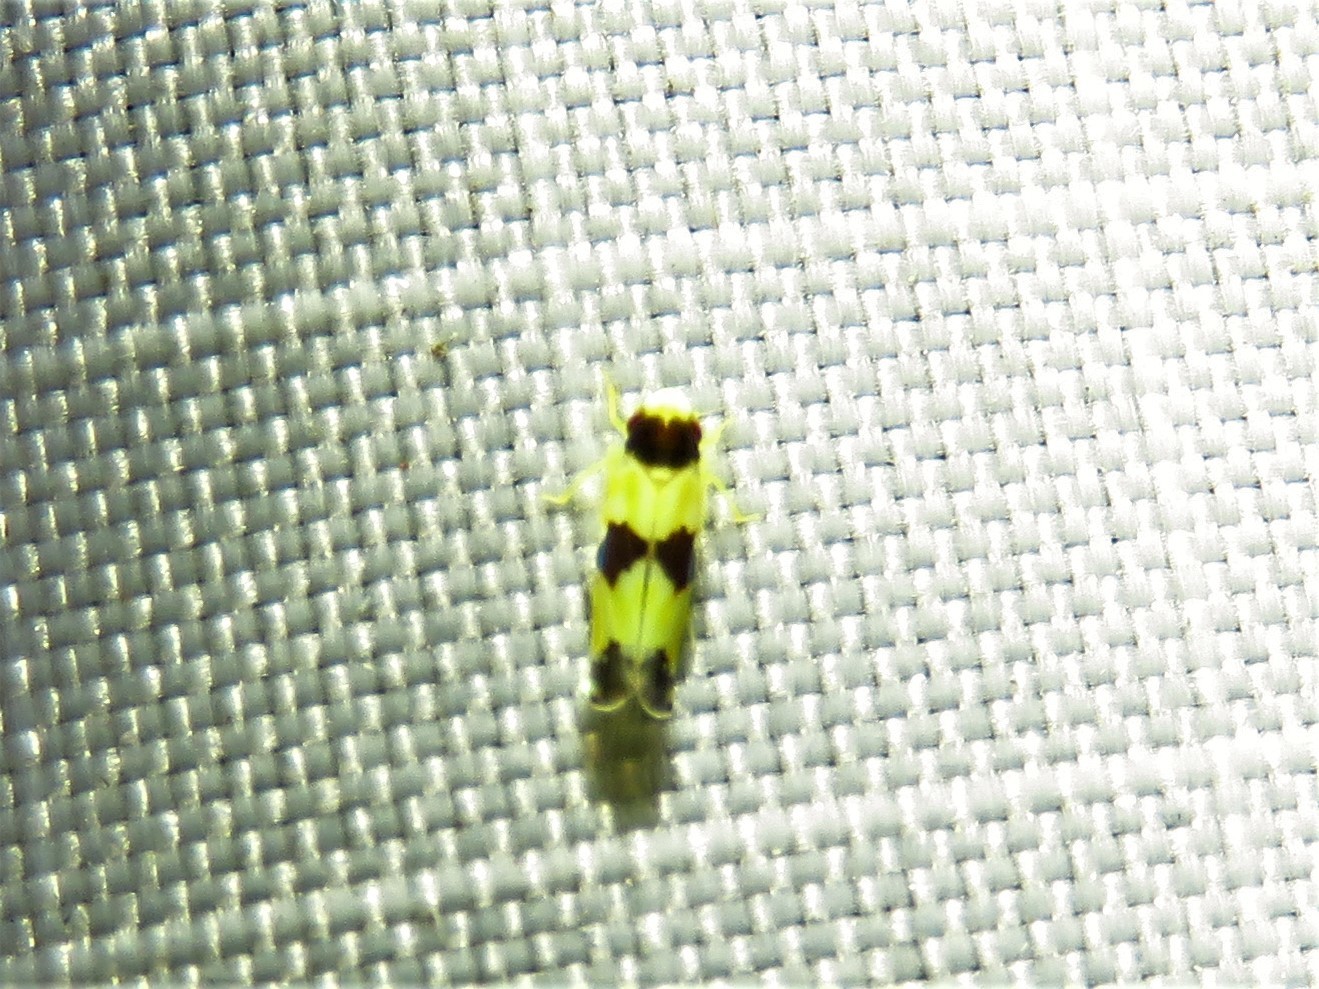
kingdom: Animalia
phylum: Arthropoda
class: Insecta
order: Hemiptera
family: Cicadellidae
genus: Erythroneura
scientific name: Erythroneura tricincta
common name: The threebanded grape leafhopper
